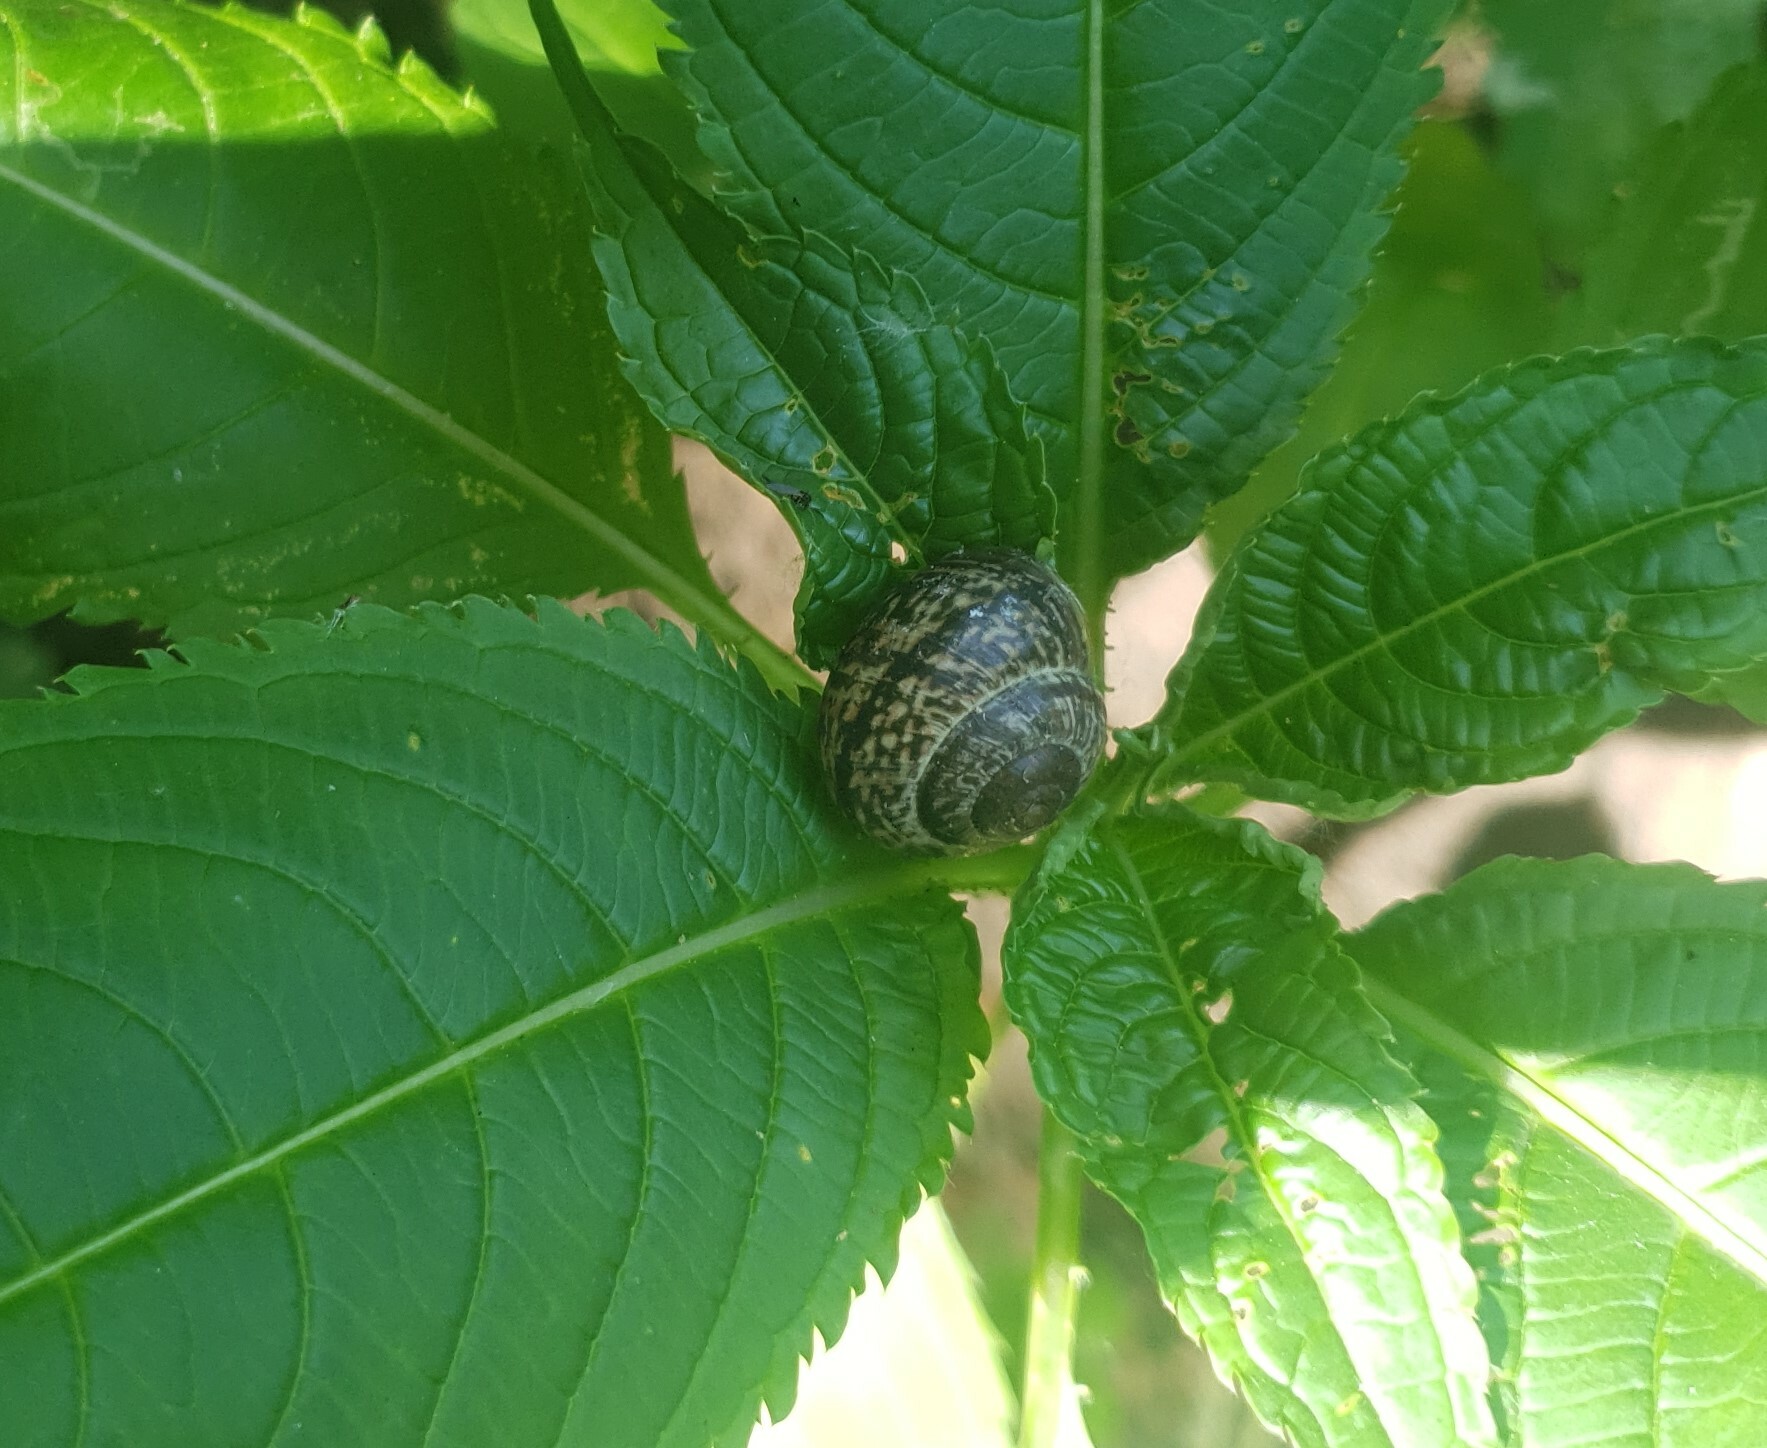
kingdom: Animalia
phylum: Mollusca
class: Gastropoda
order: Stylommatophora
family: Helicidae
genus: Arianta
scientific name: Arianta arbustorum
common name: Copse snail
